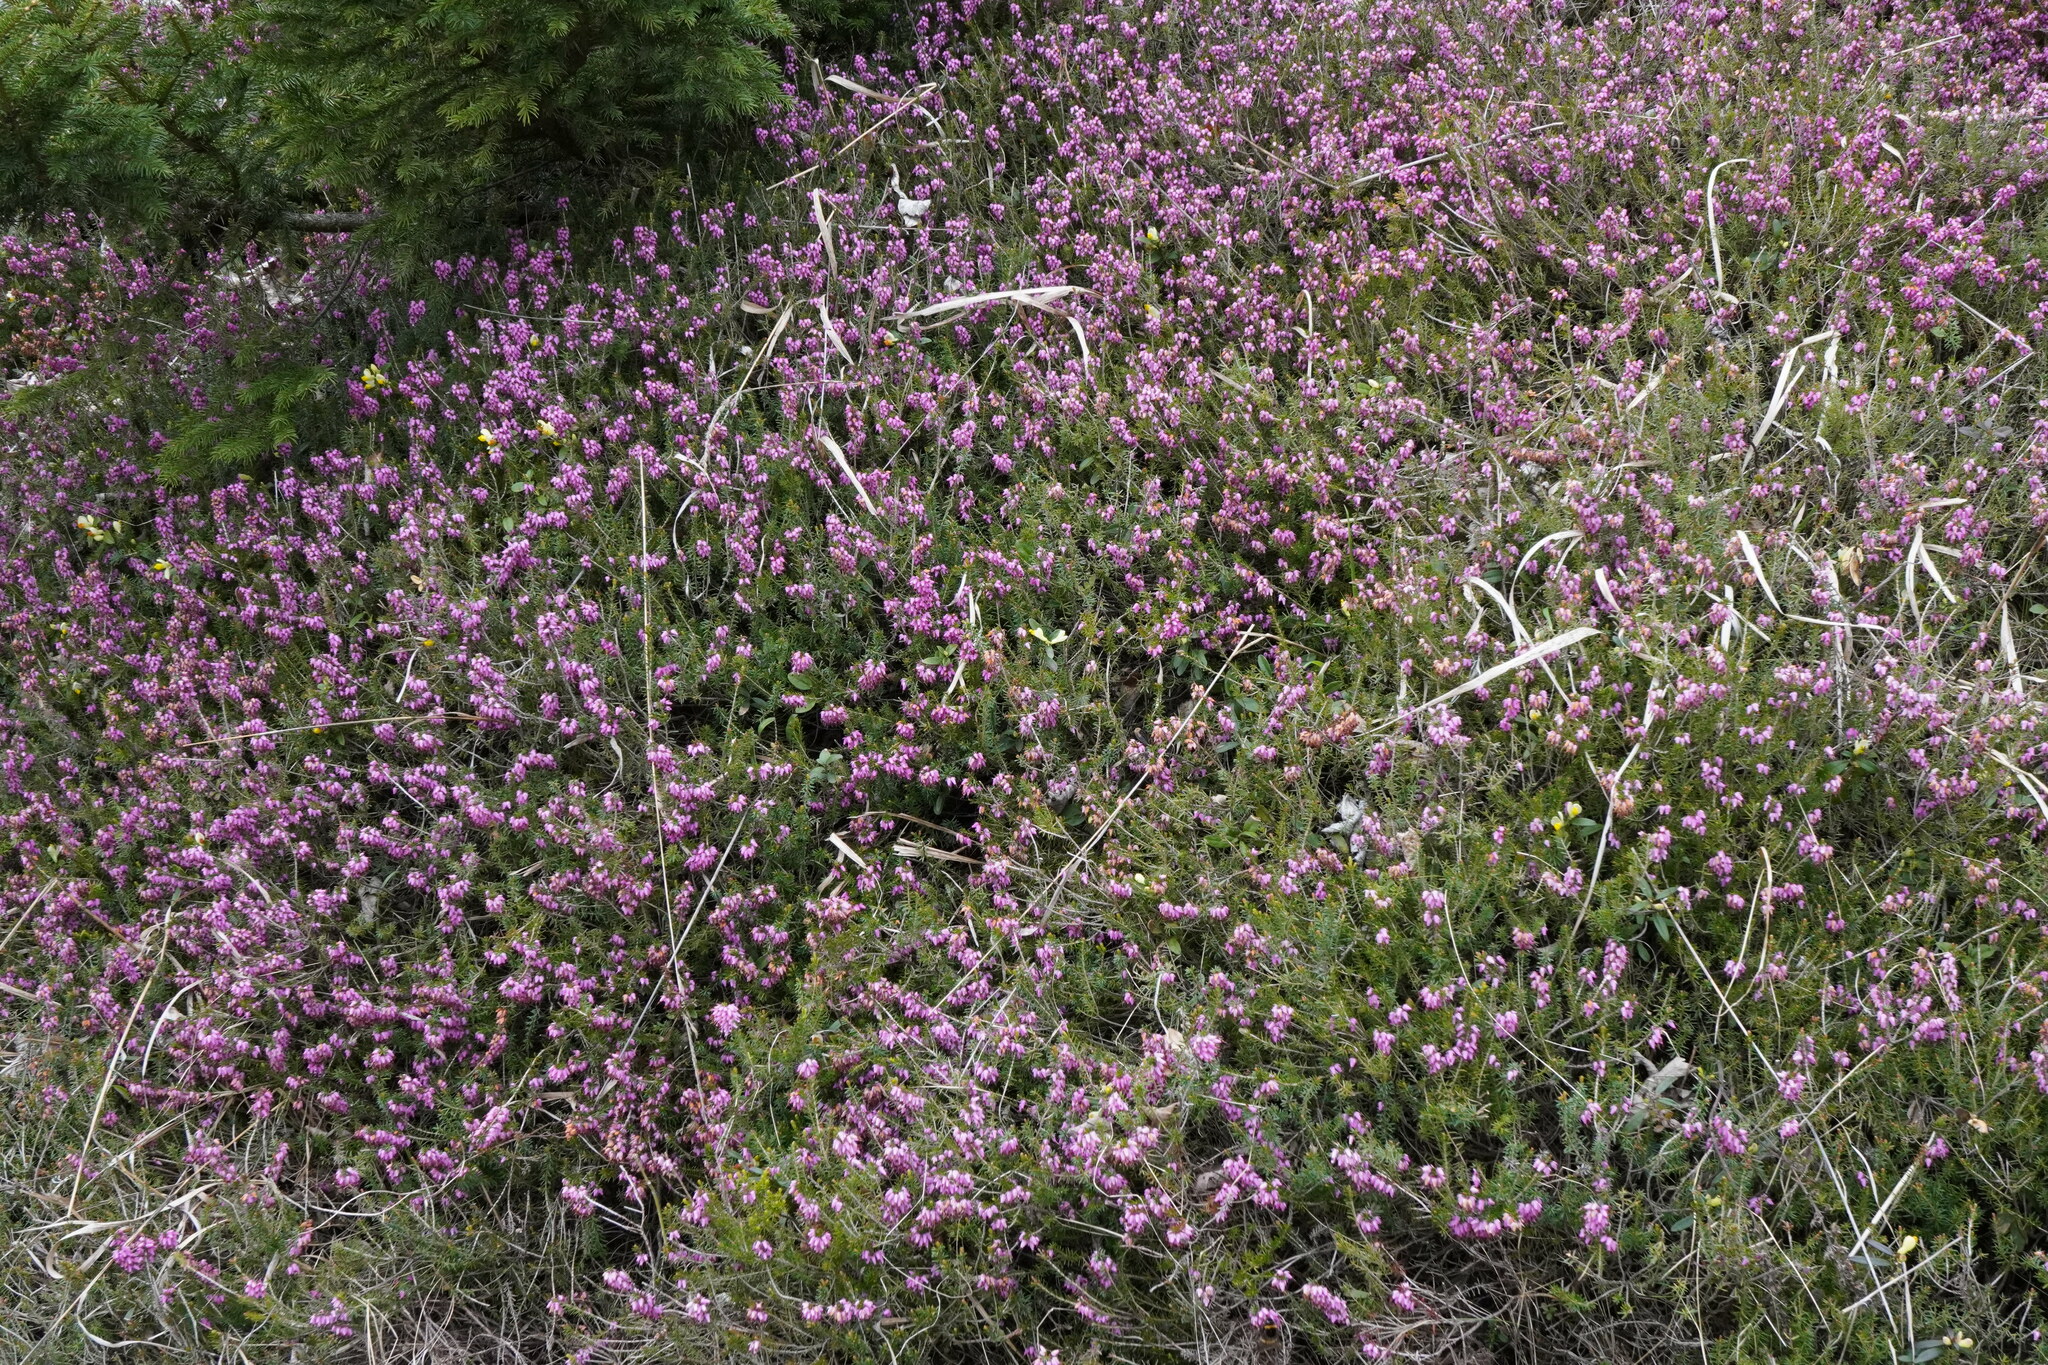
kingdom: Plantae
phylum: Tracheophyta
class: Magnoliopsida
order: Ericales
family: Ericaceae
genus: Erica
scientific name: Erica carnea
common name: Winter heath
